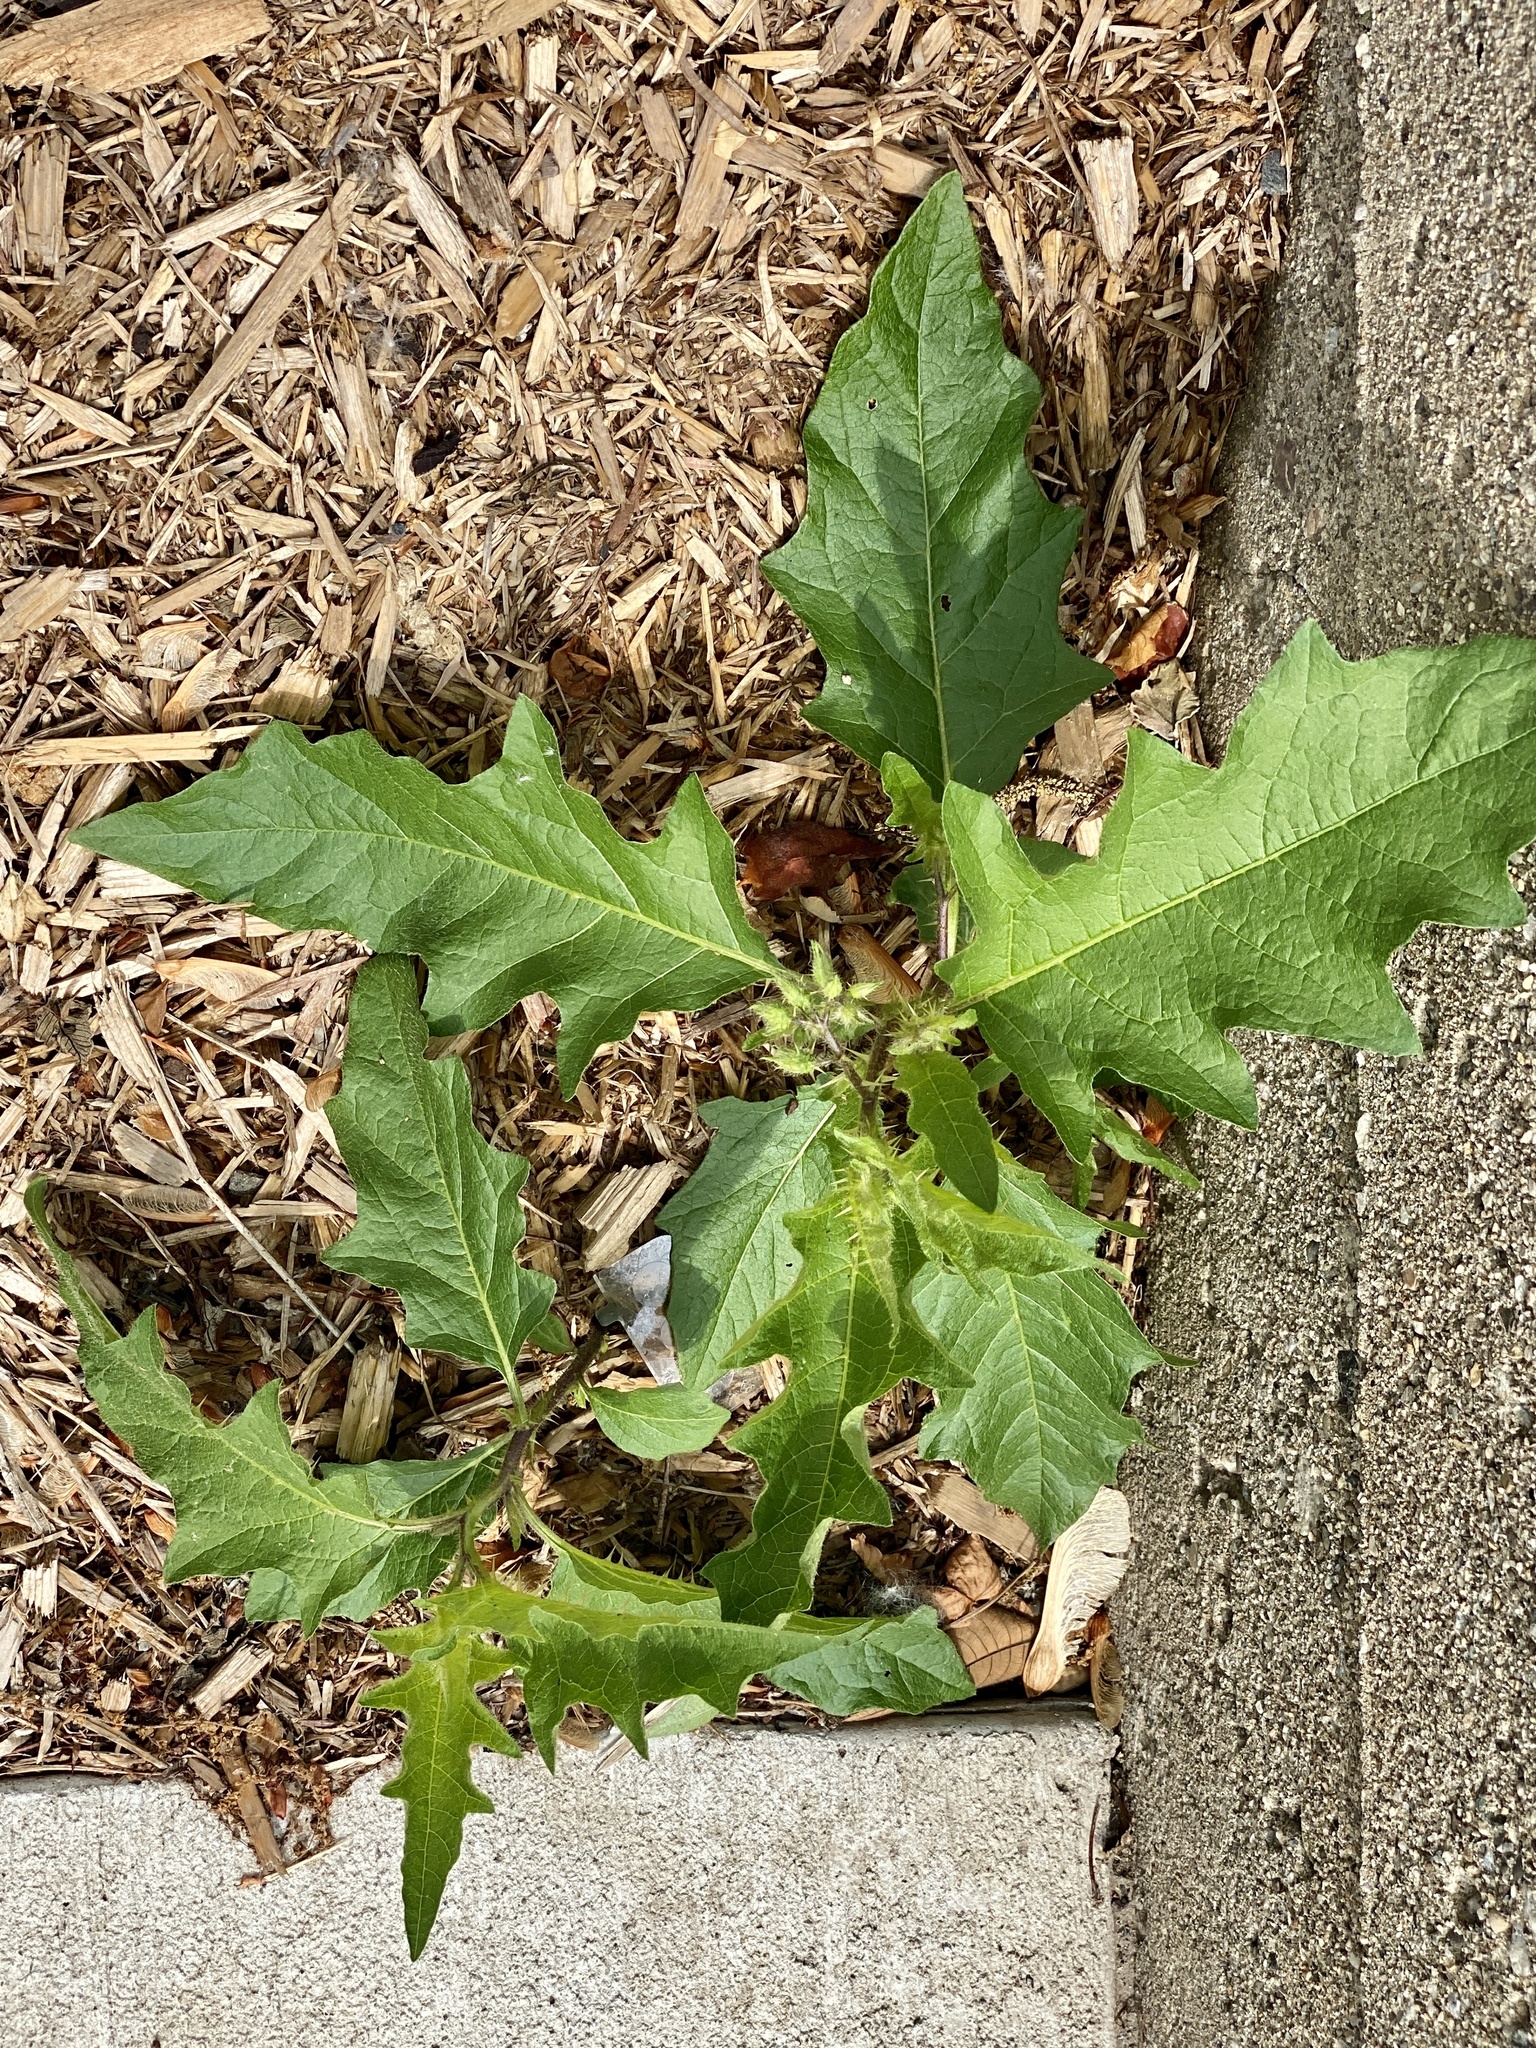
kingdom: Plantae
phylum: Tracheophyta
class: Magnoliopsida
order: Solanales
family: Solanaceae
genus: Solanum
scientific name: Solanum carolinense
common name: Horse-nettle
